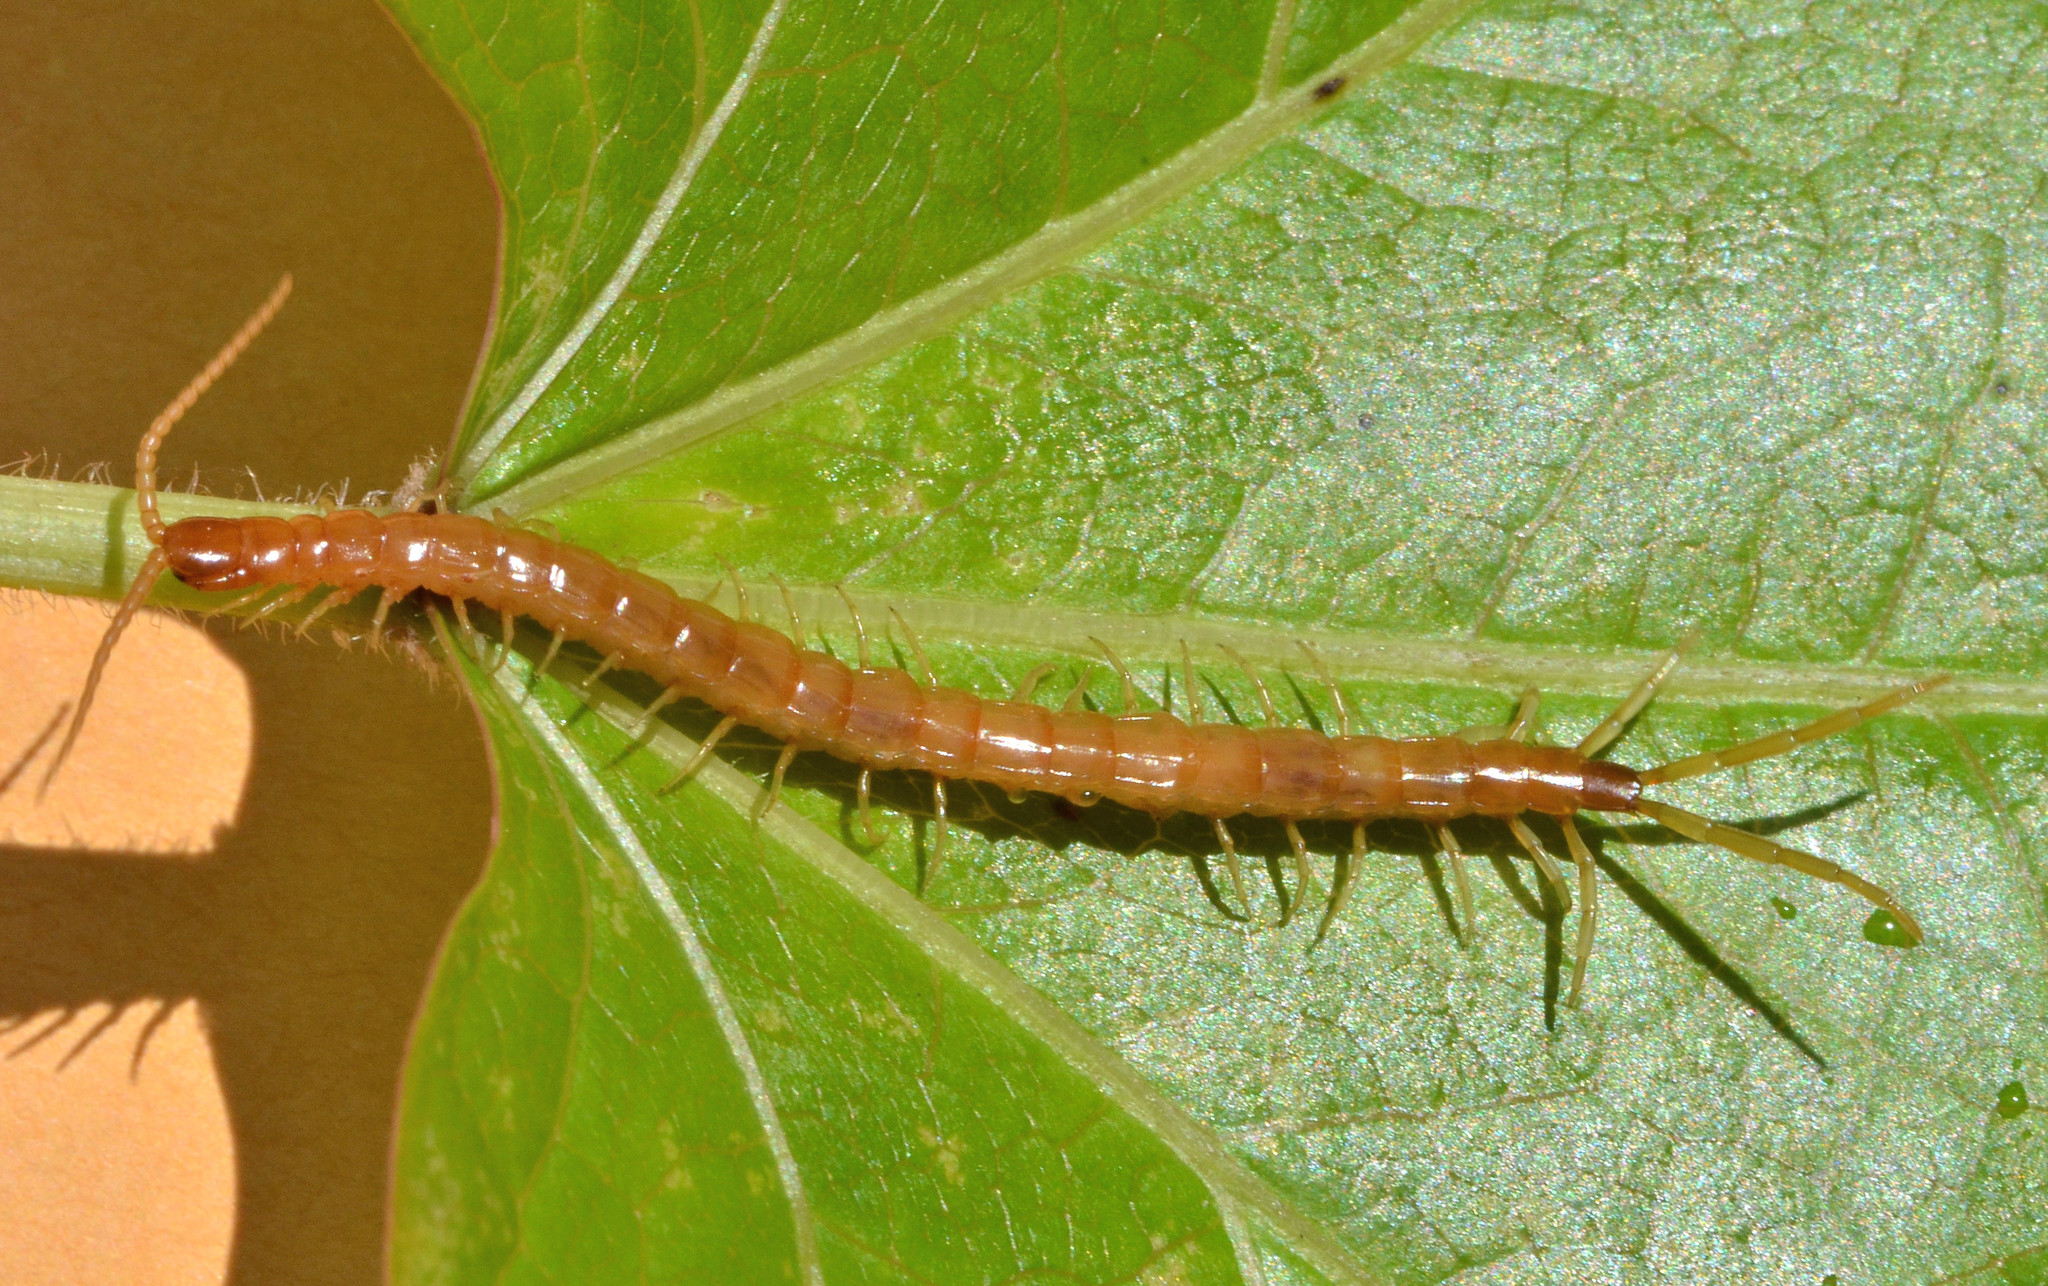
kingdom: Animalia
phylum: Arthropoda
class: Chilopoda
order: Scolopendromorpha
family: Scolopocryptopidae
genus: Scolopocryptops
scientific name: Scolopocryptops gracilis
